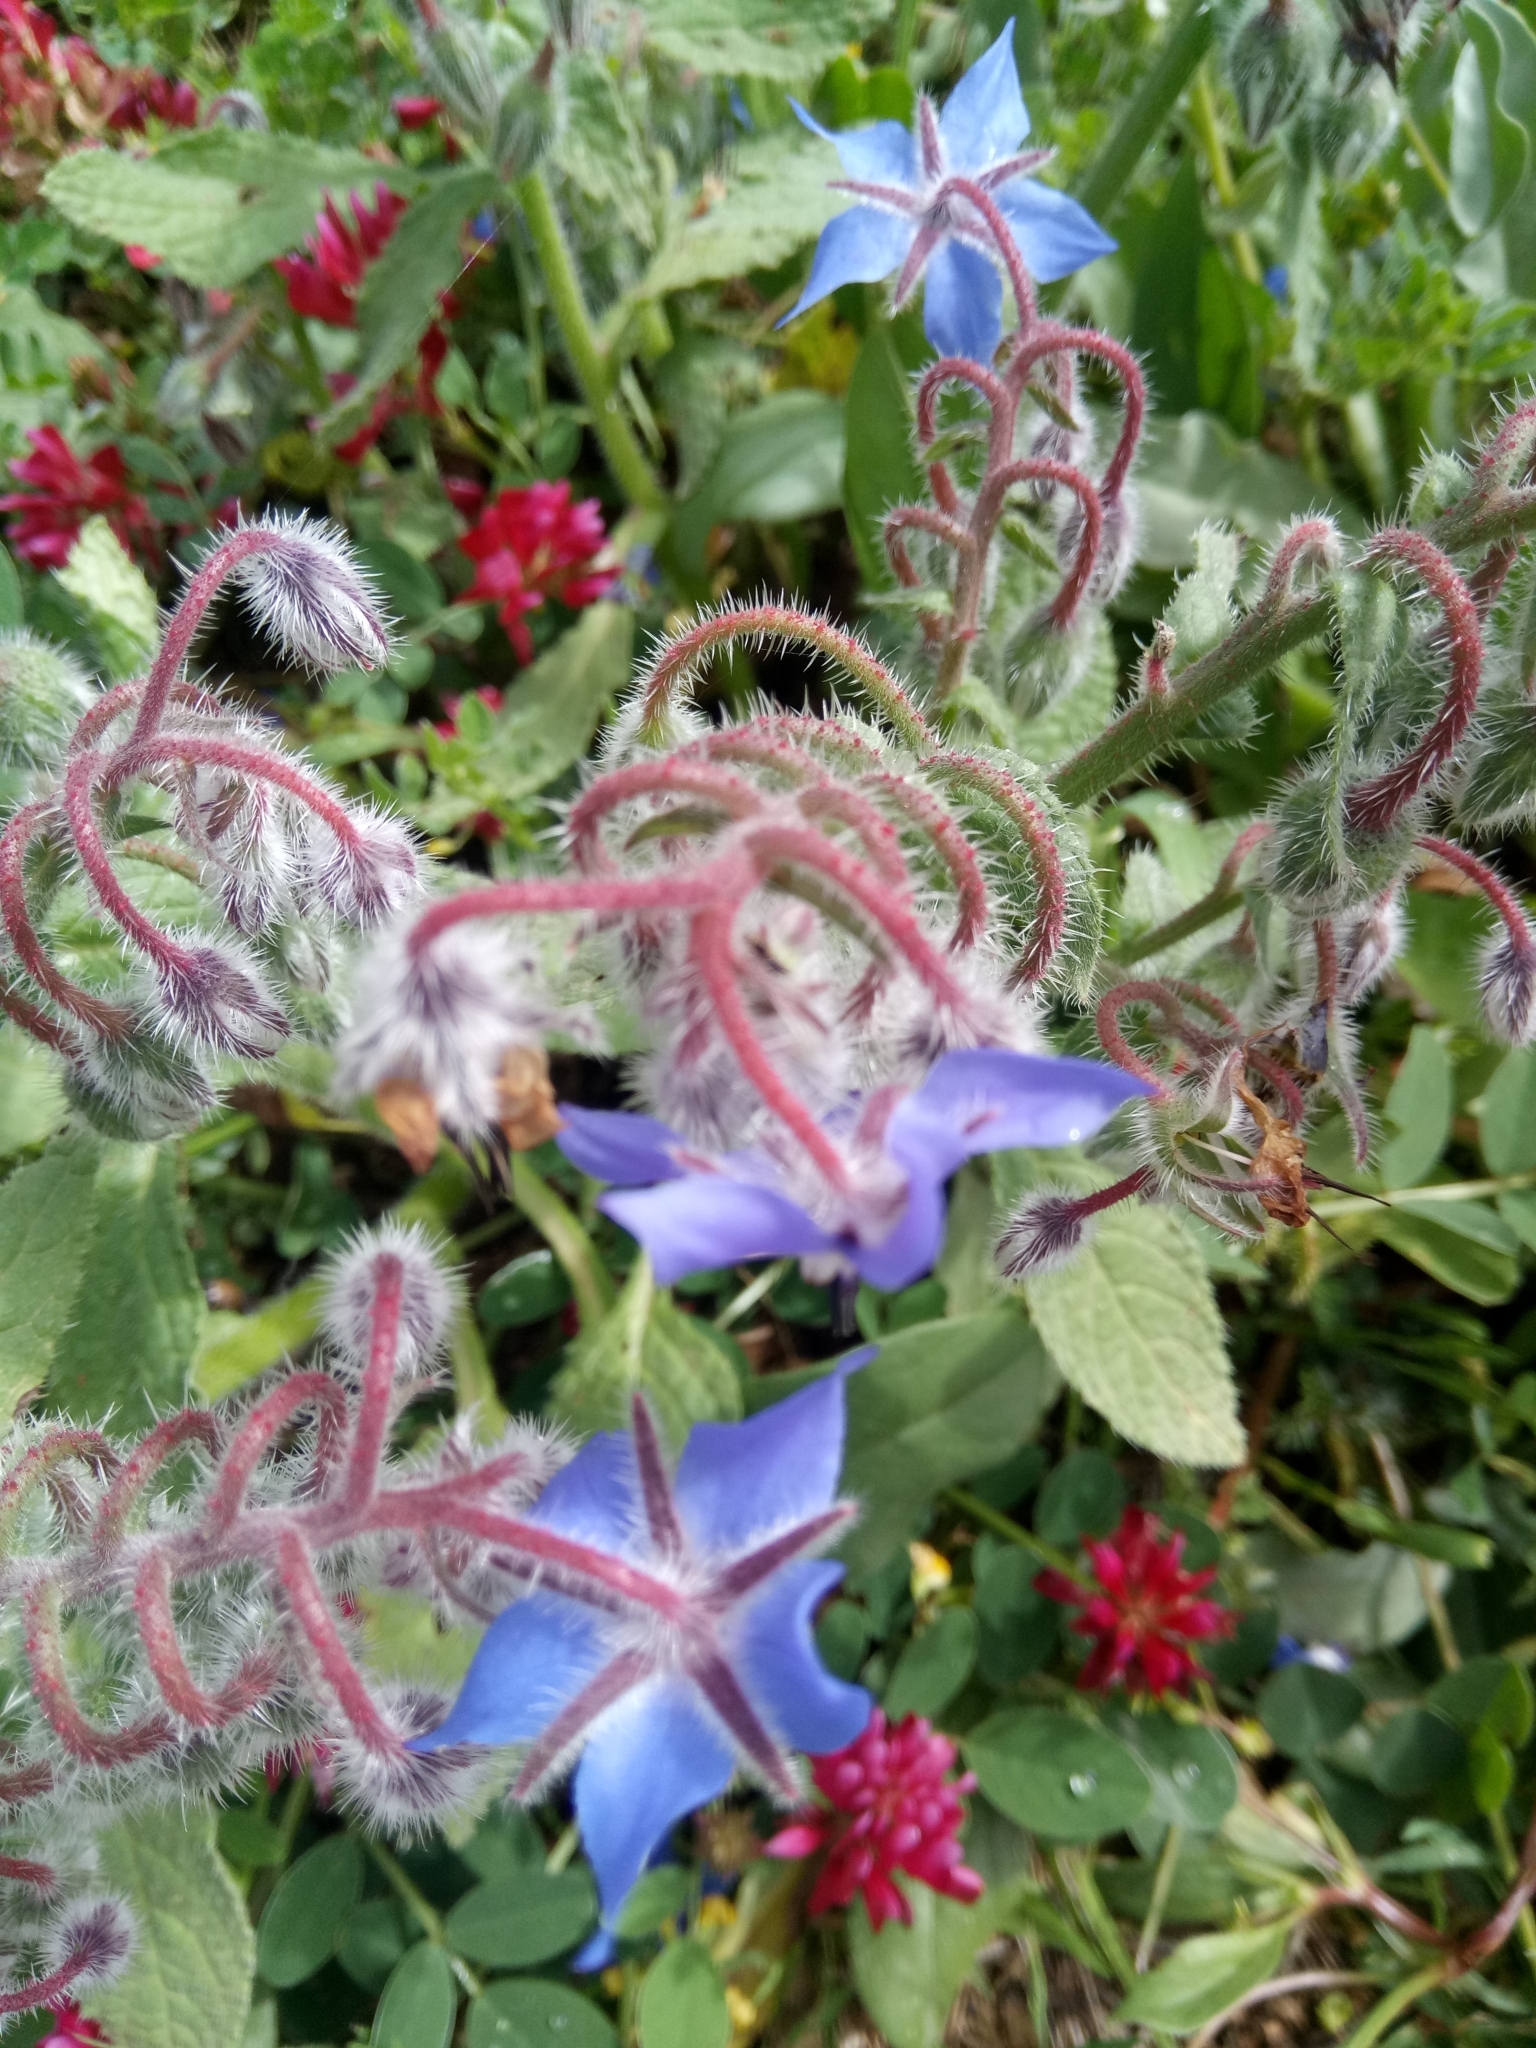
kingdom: Plantae
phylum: Tracheophyta
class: Magnoliopsida
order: Boraginales
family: Boraginaceae
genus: Borago
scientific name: Borago officinalis
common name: Borage
